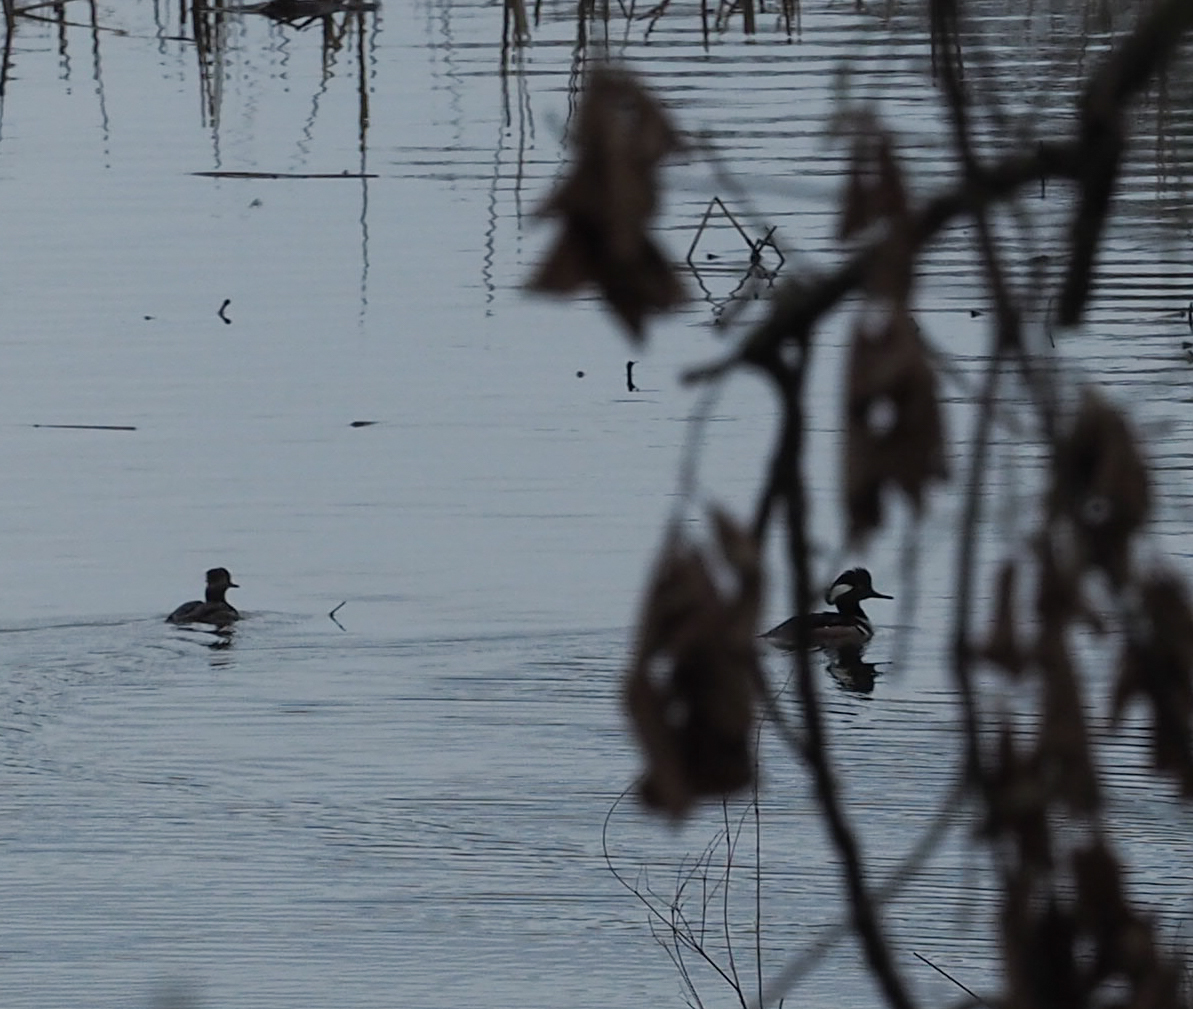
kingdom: Animalia
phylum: Chordata
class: Aves
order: Anseriformes
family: Anatidae
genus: Lophodytes
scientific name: Lophodytes cucullatus
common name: Hooded merganser
